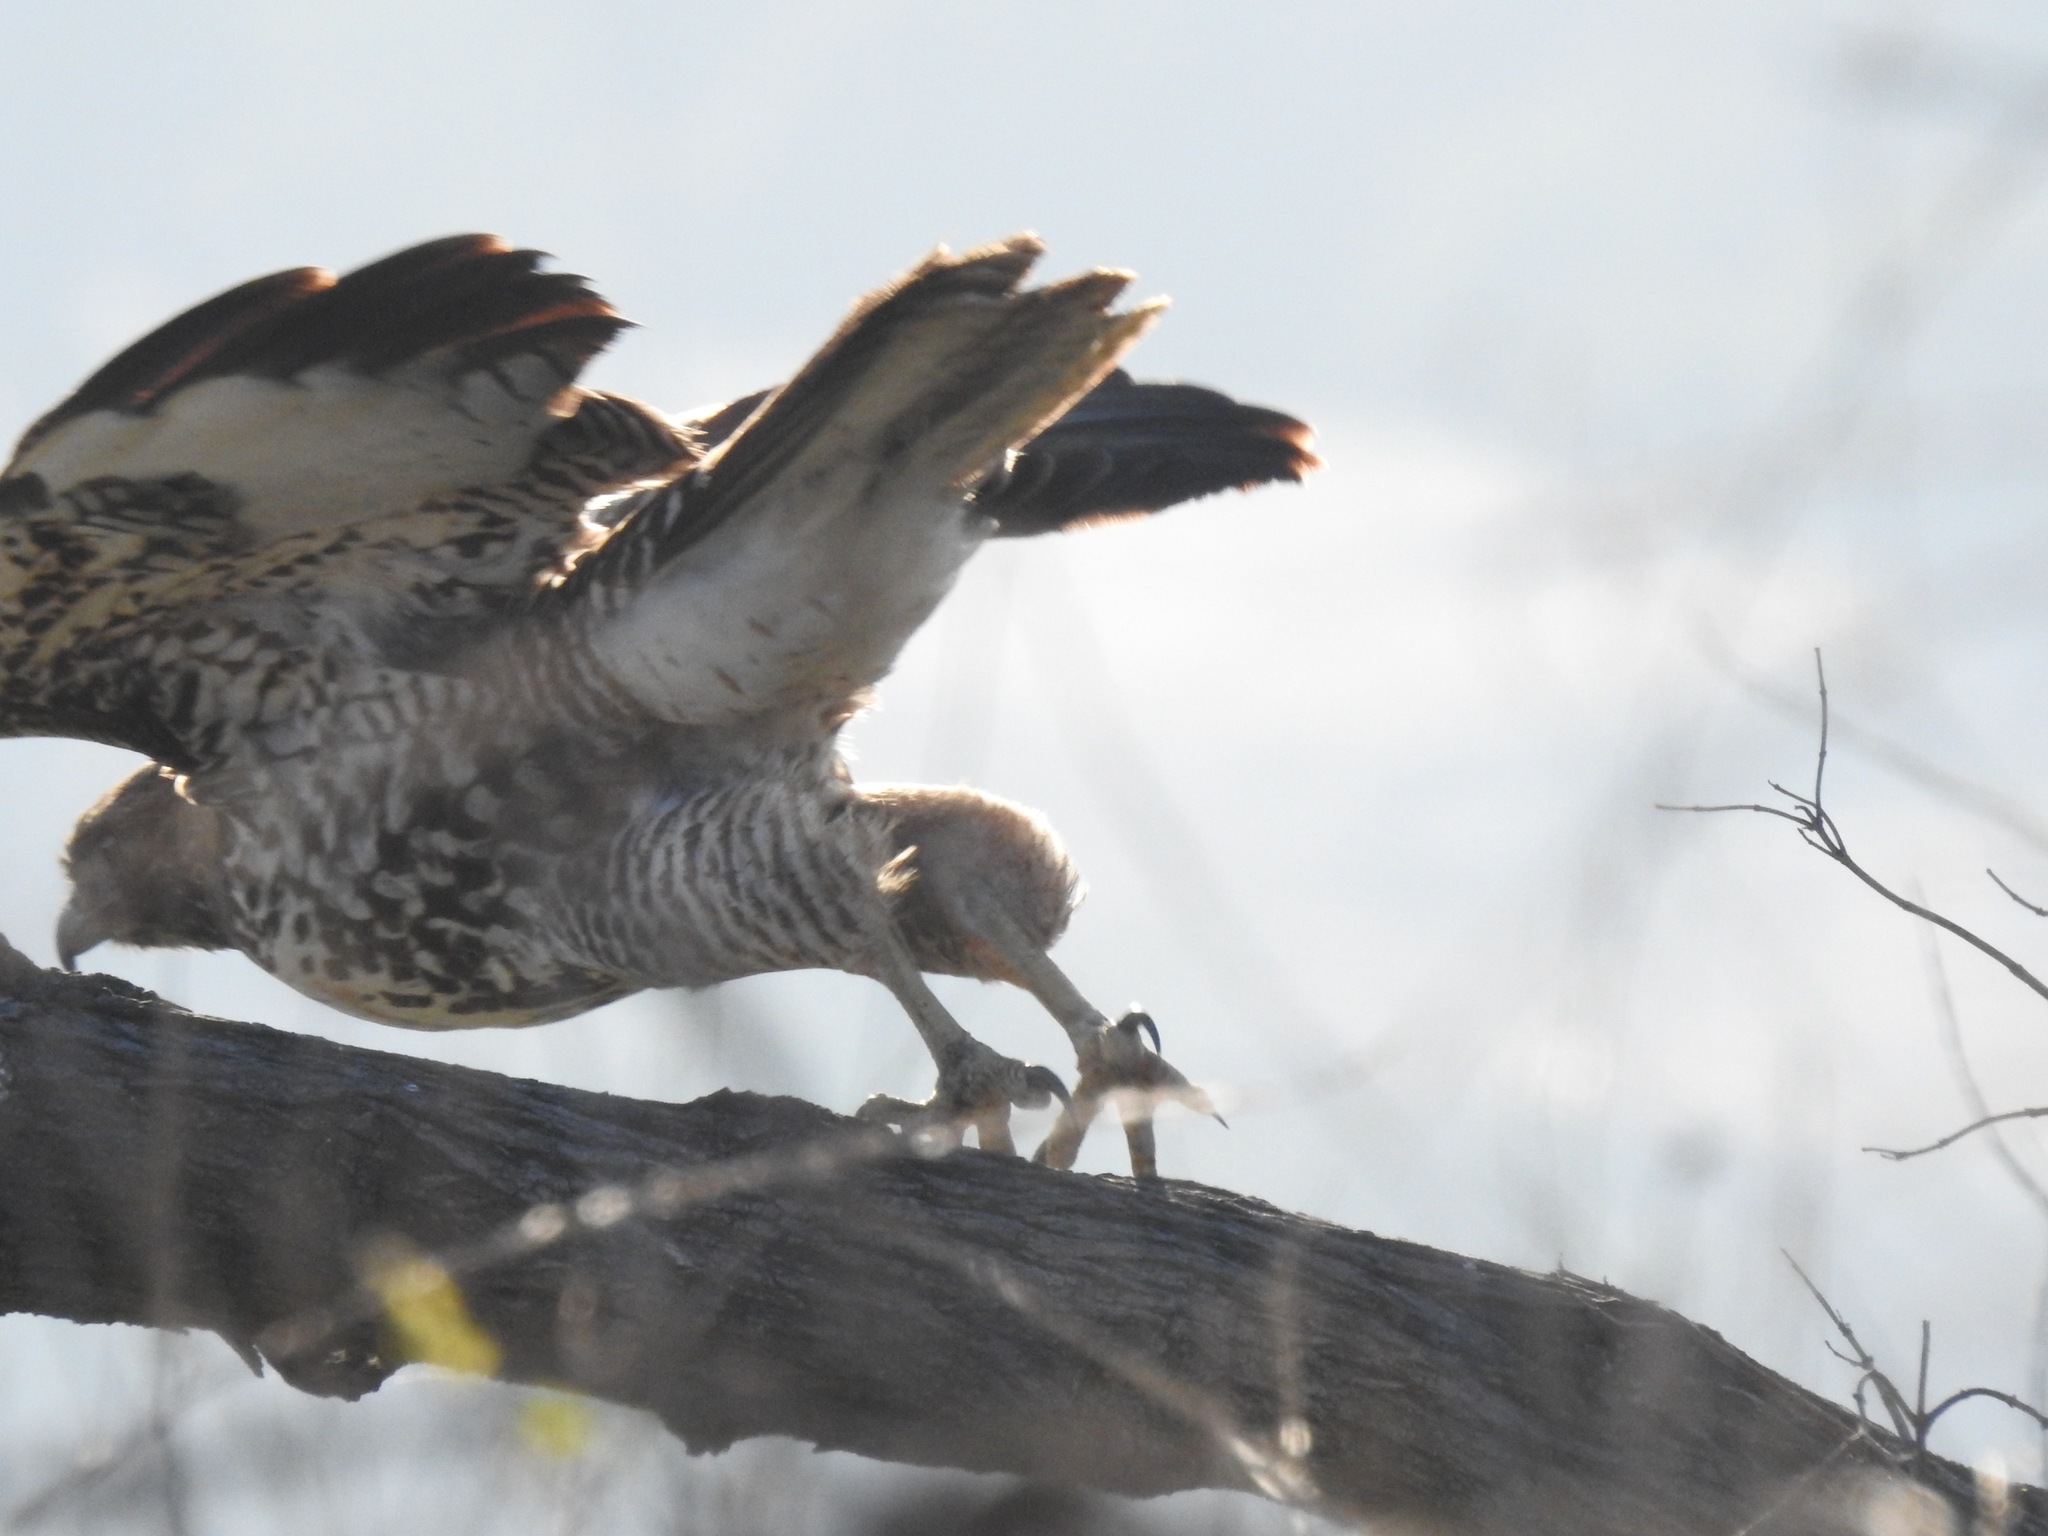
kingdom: Animalia
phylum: Chordata
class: Aves
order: Accipitriformes
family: Accipitridae
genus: Buteo
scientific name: Buteo jamaicensis
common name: Red-tailed hawk
